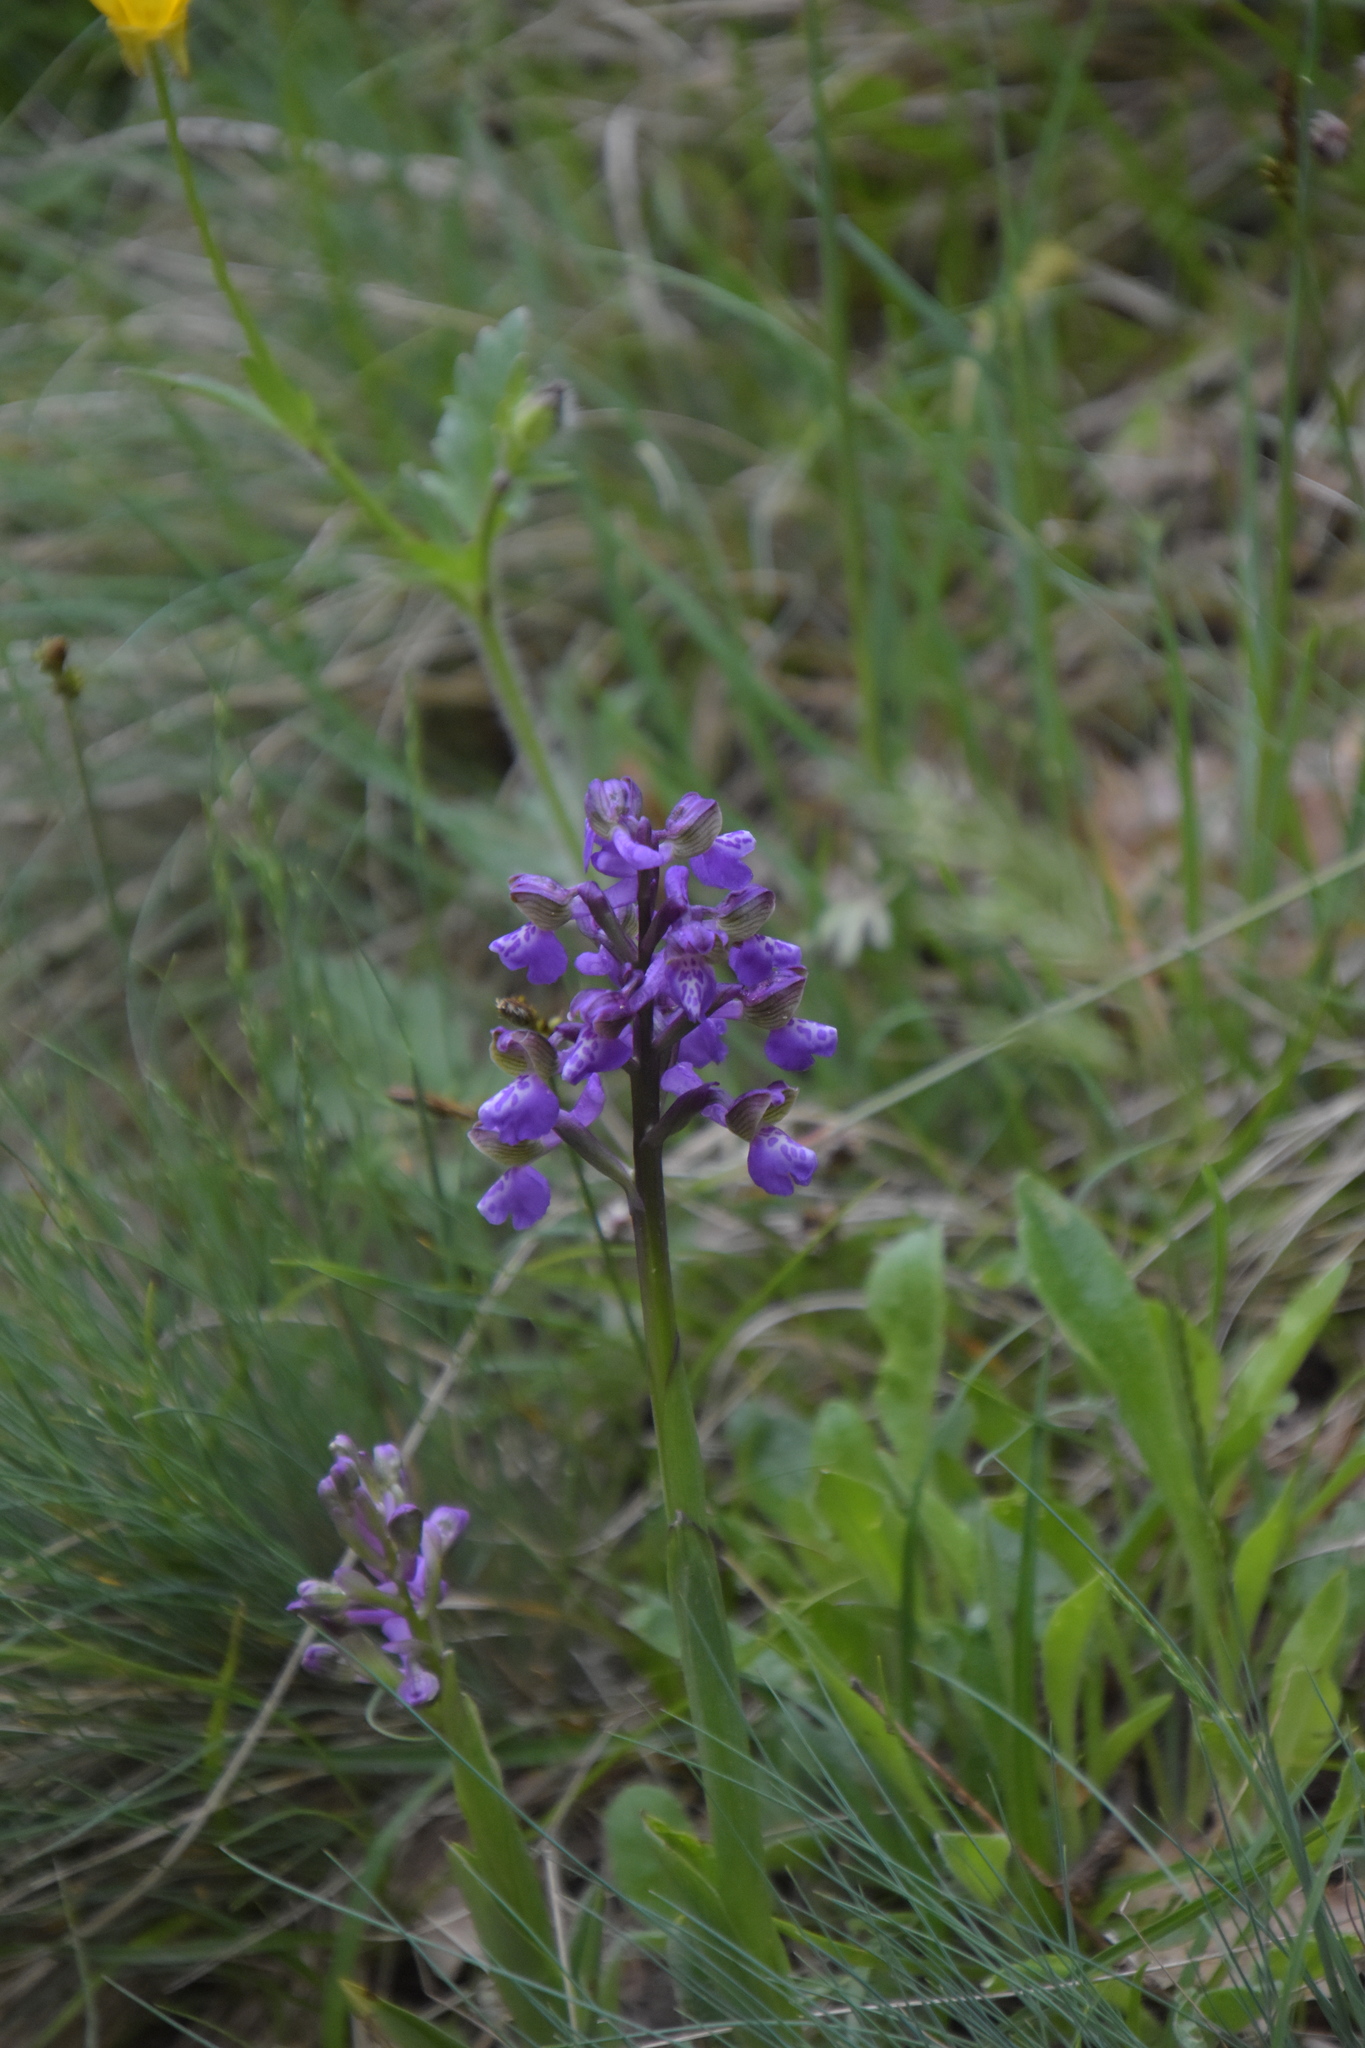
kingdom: Plantae
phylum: Tracheophyta
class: Liliopsida
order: Asparagales
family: Orchidaceae
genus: Anacamptis
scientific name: Anacamptis morio
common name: Green-winged orchid
